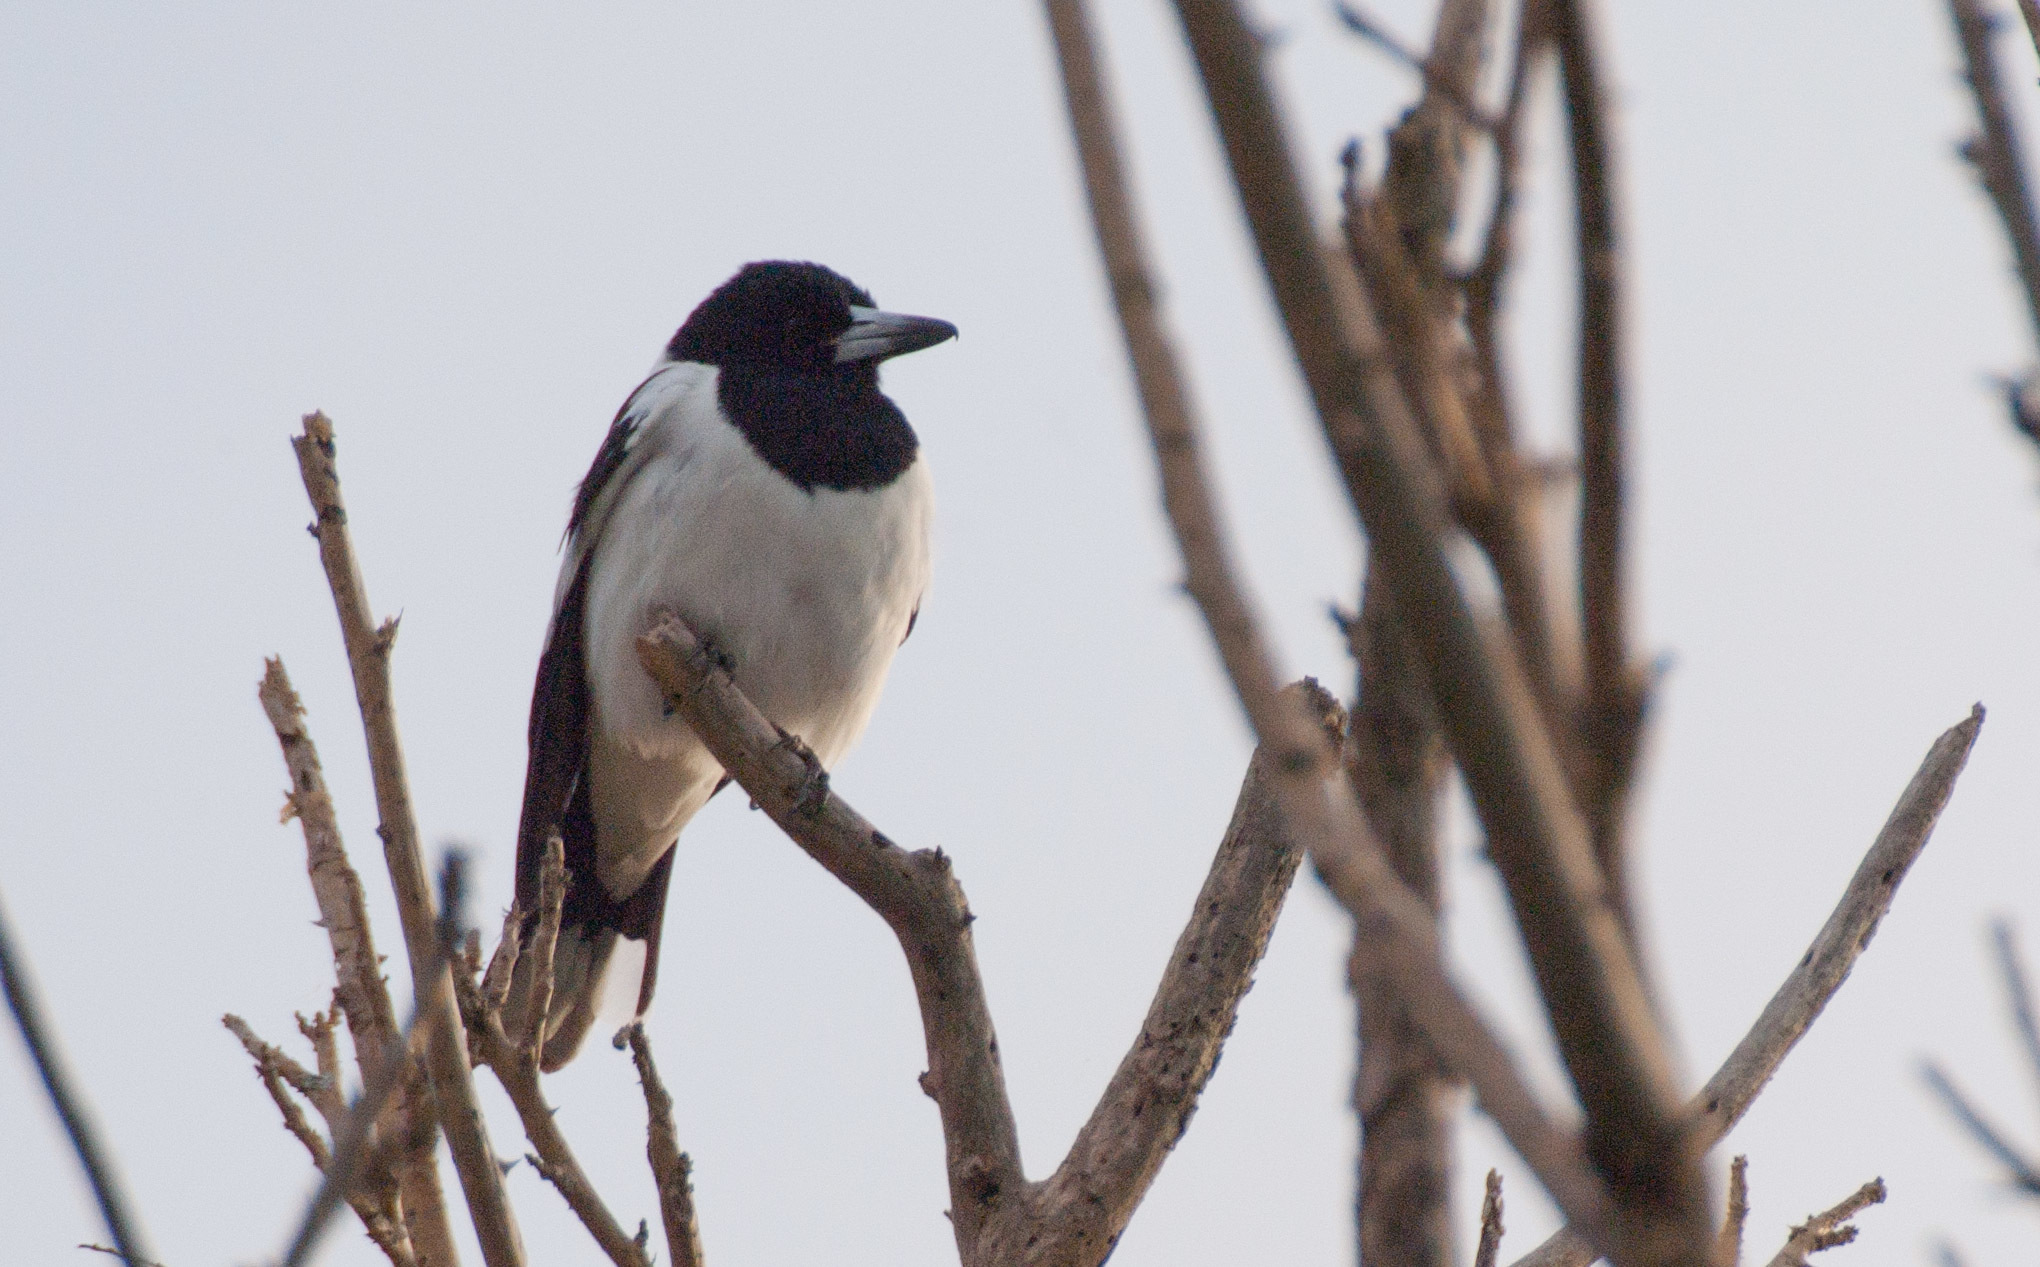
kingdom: Animalia
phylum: Chordata
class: Aves
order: Passeriformes
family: Cracticidae
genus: Cracticus
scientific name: Cracticus nigrogularis
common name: Pied butcherbird
